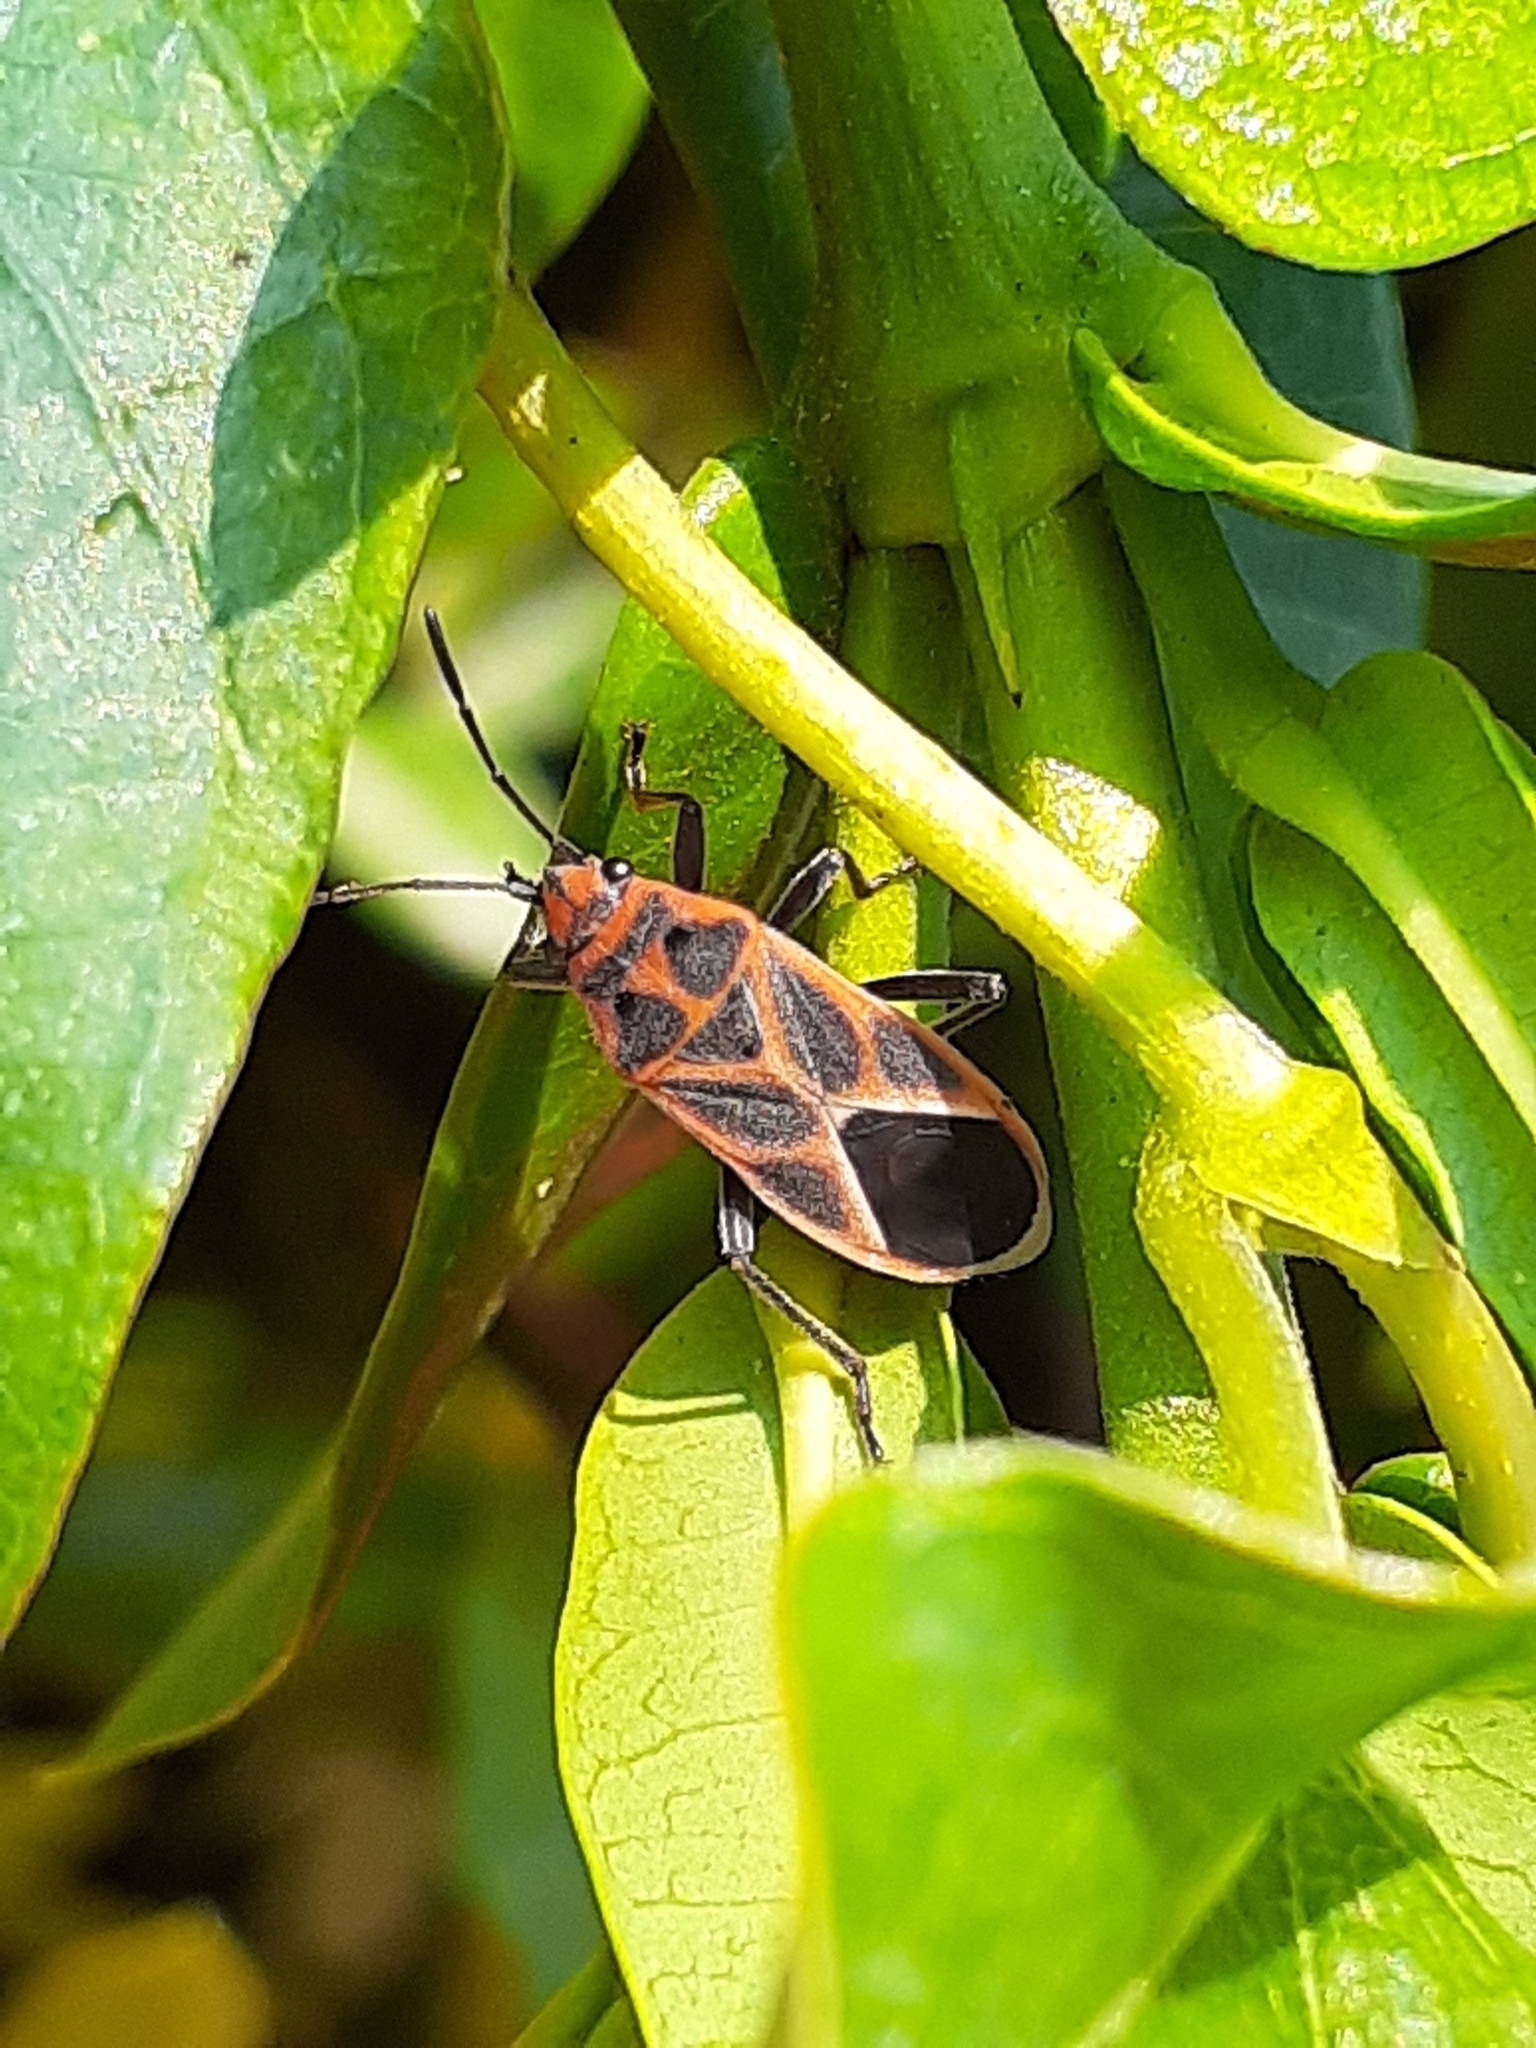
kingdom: Animalia
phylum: Arthropoda
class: Insecta
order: Hemiptera
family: Lygaeidae
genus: Graptostethus
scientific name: Graptostethus servus
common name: Lygaeid bug
